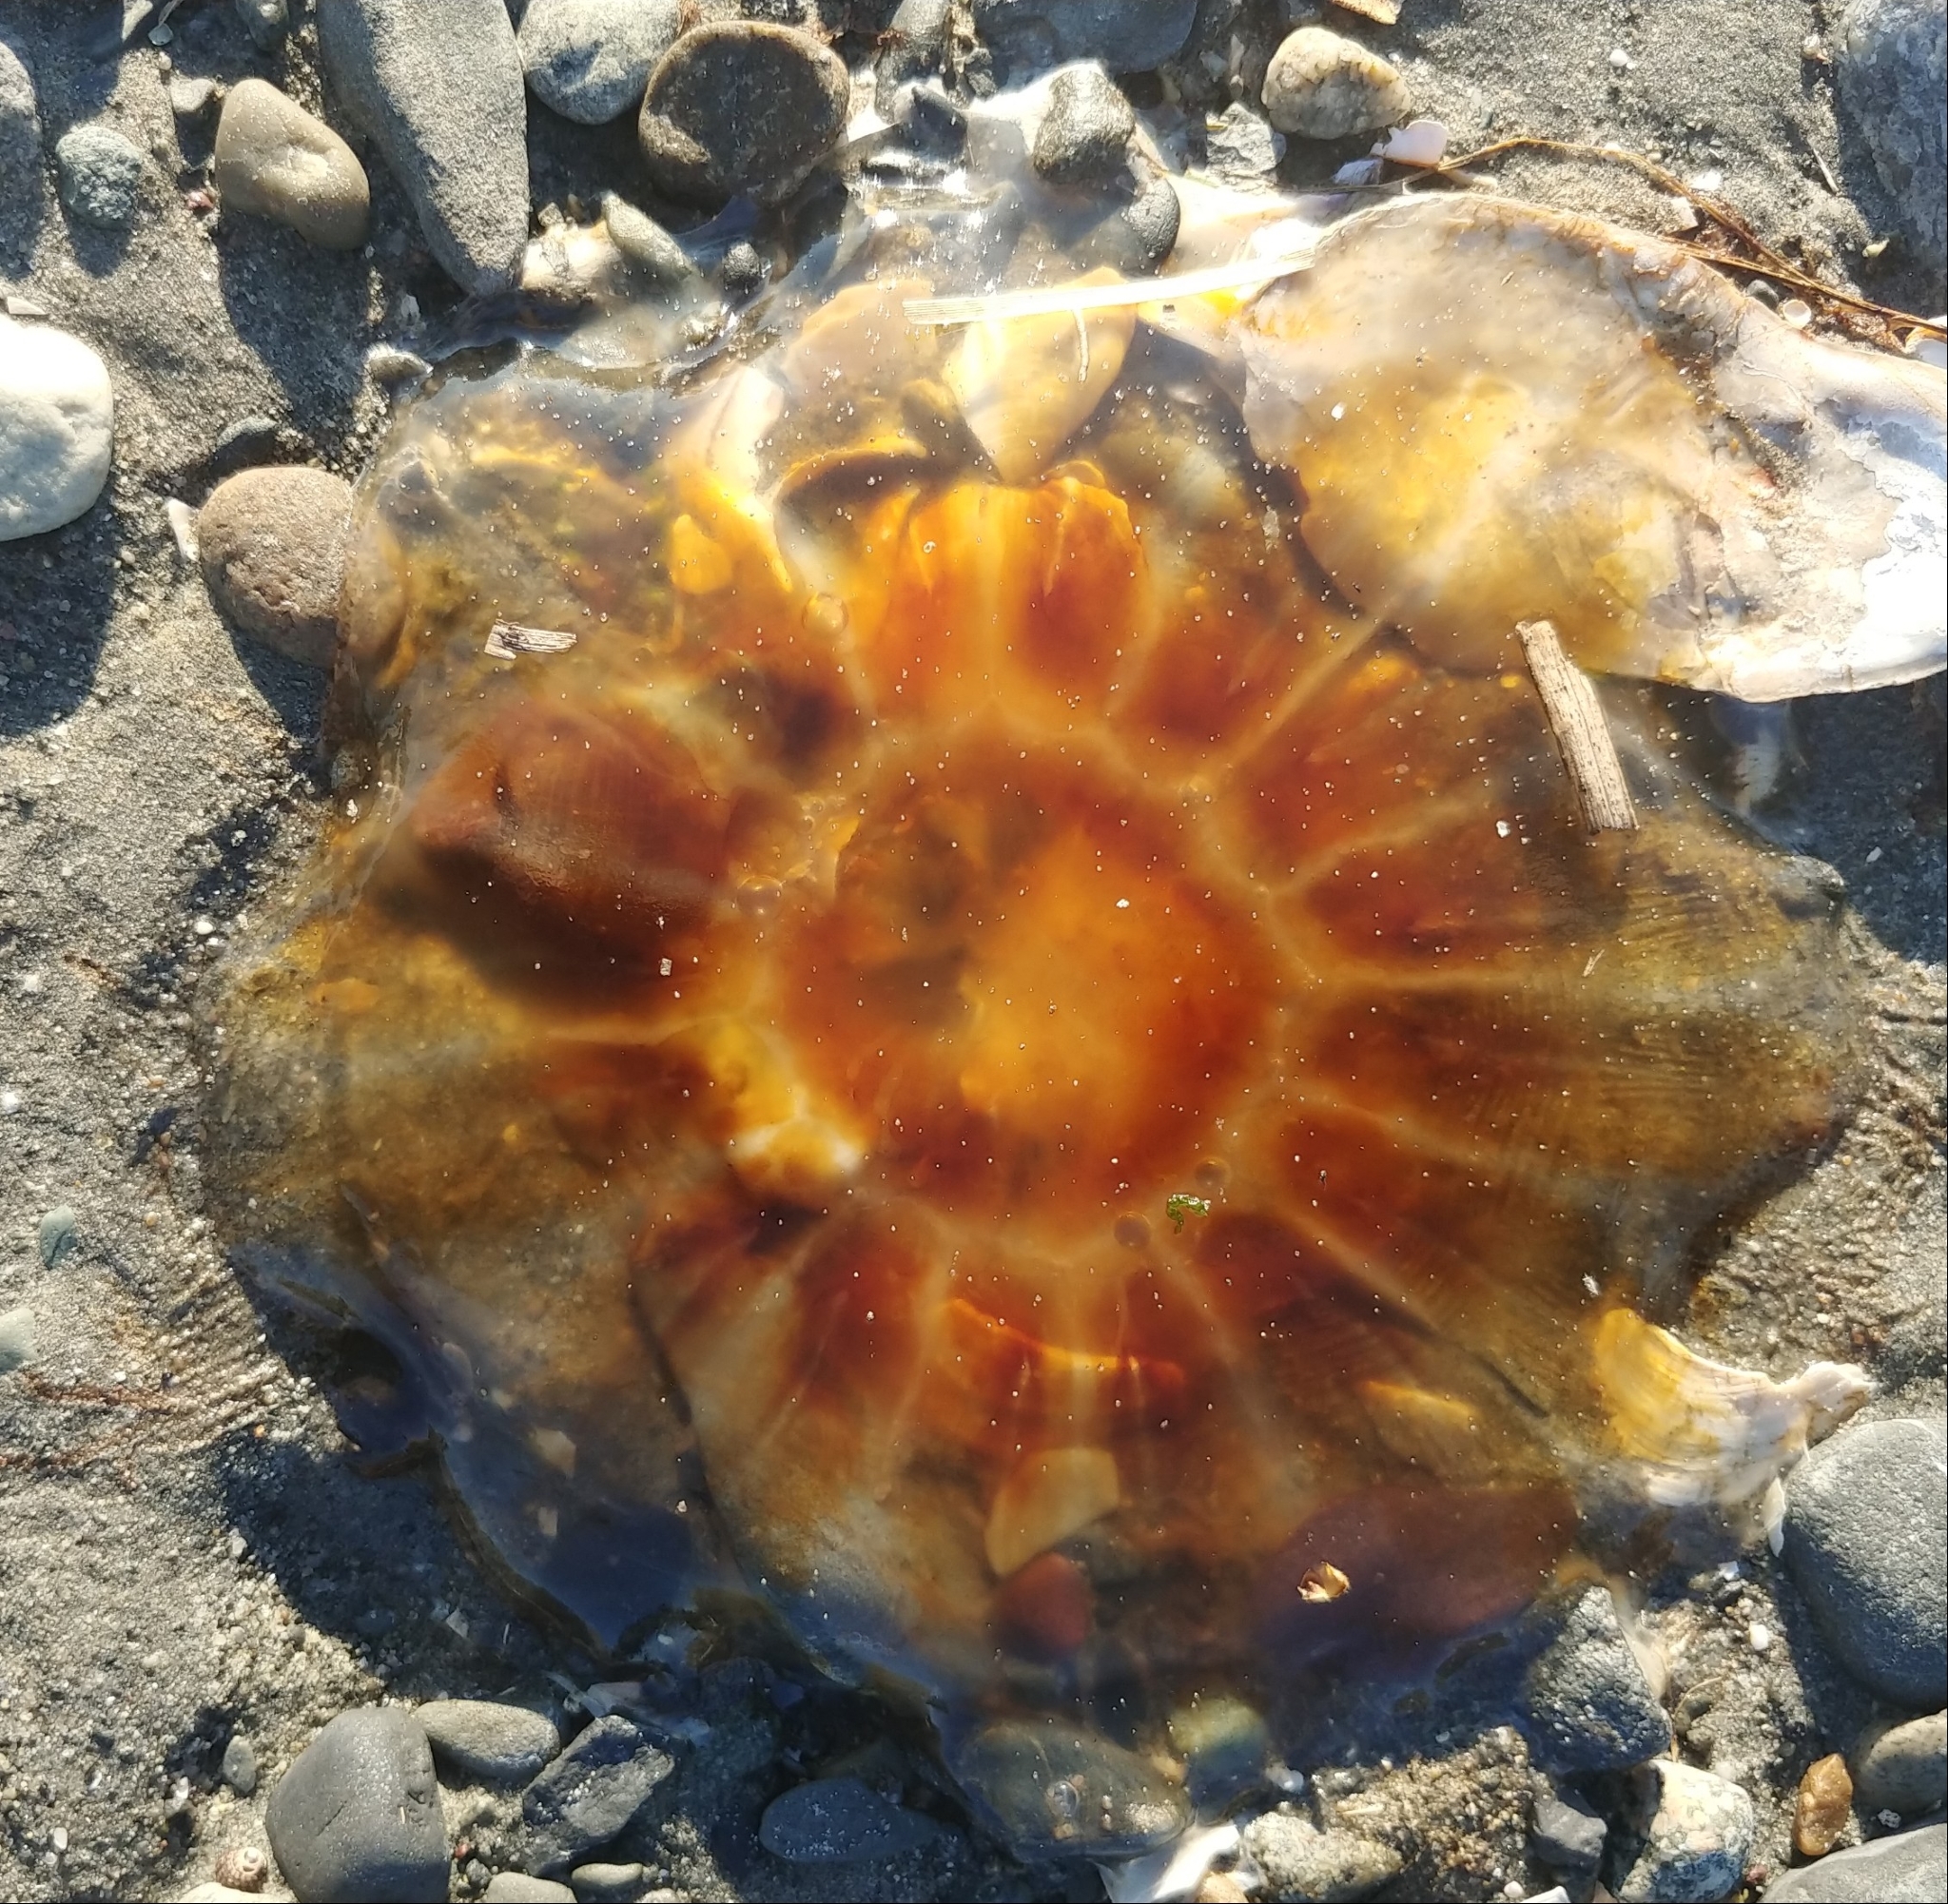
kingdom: Animalia
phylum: Cnidaria
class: Scyphozoa
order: Semaeostomeae
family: Cyaneidae
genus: Cyanea
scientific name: Cyanea fulva
